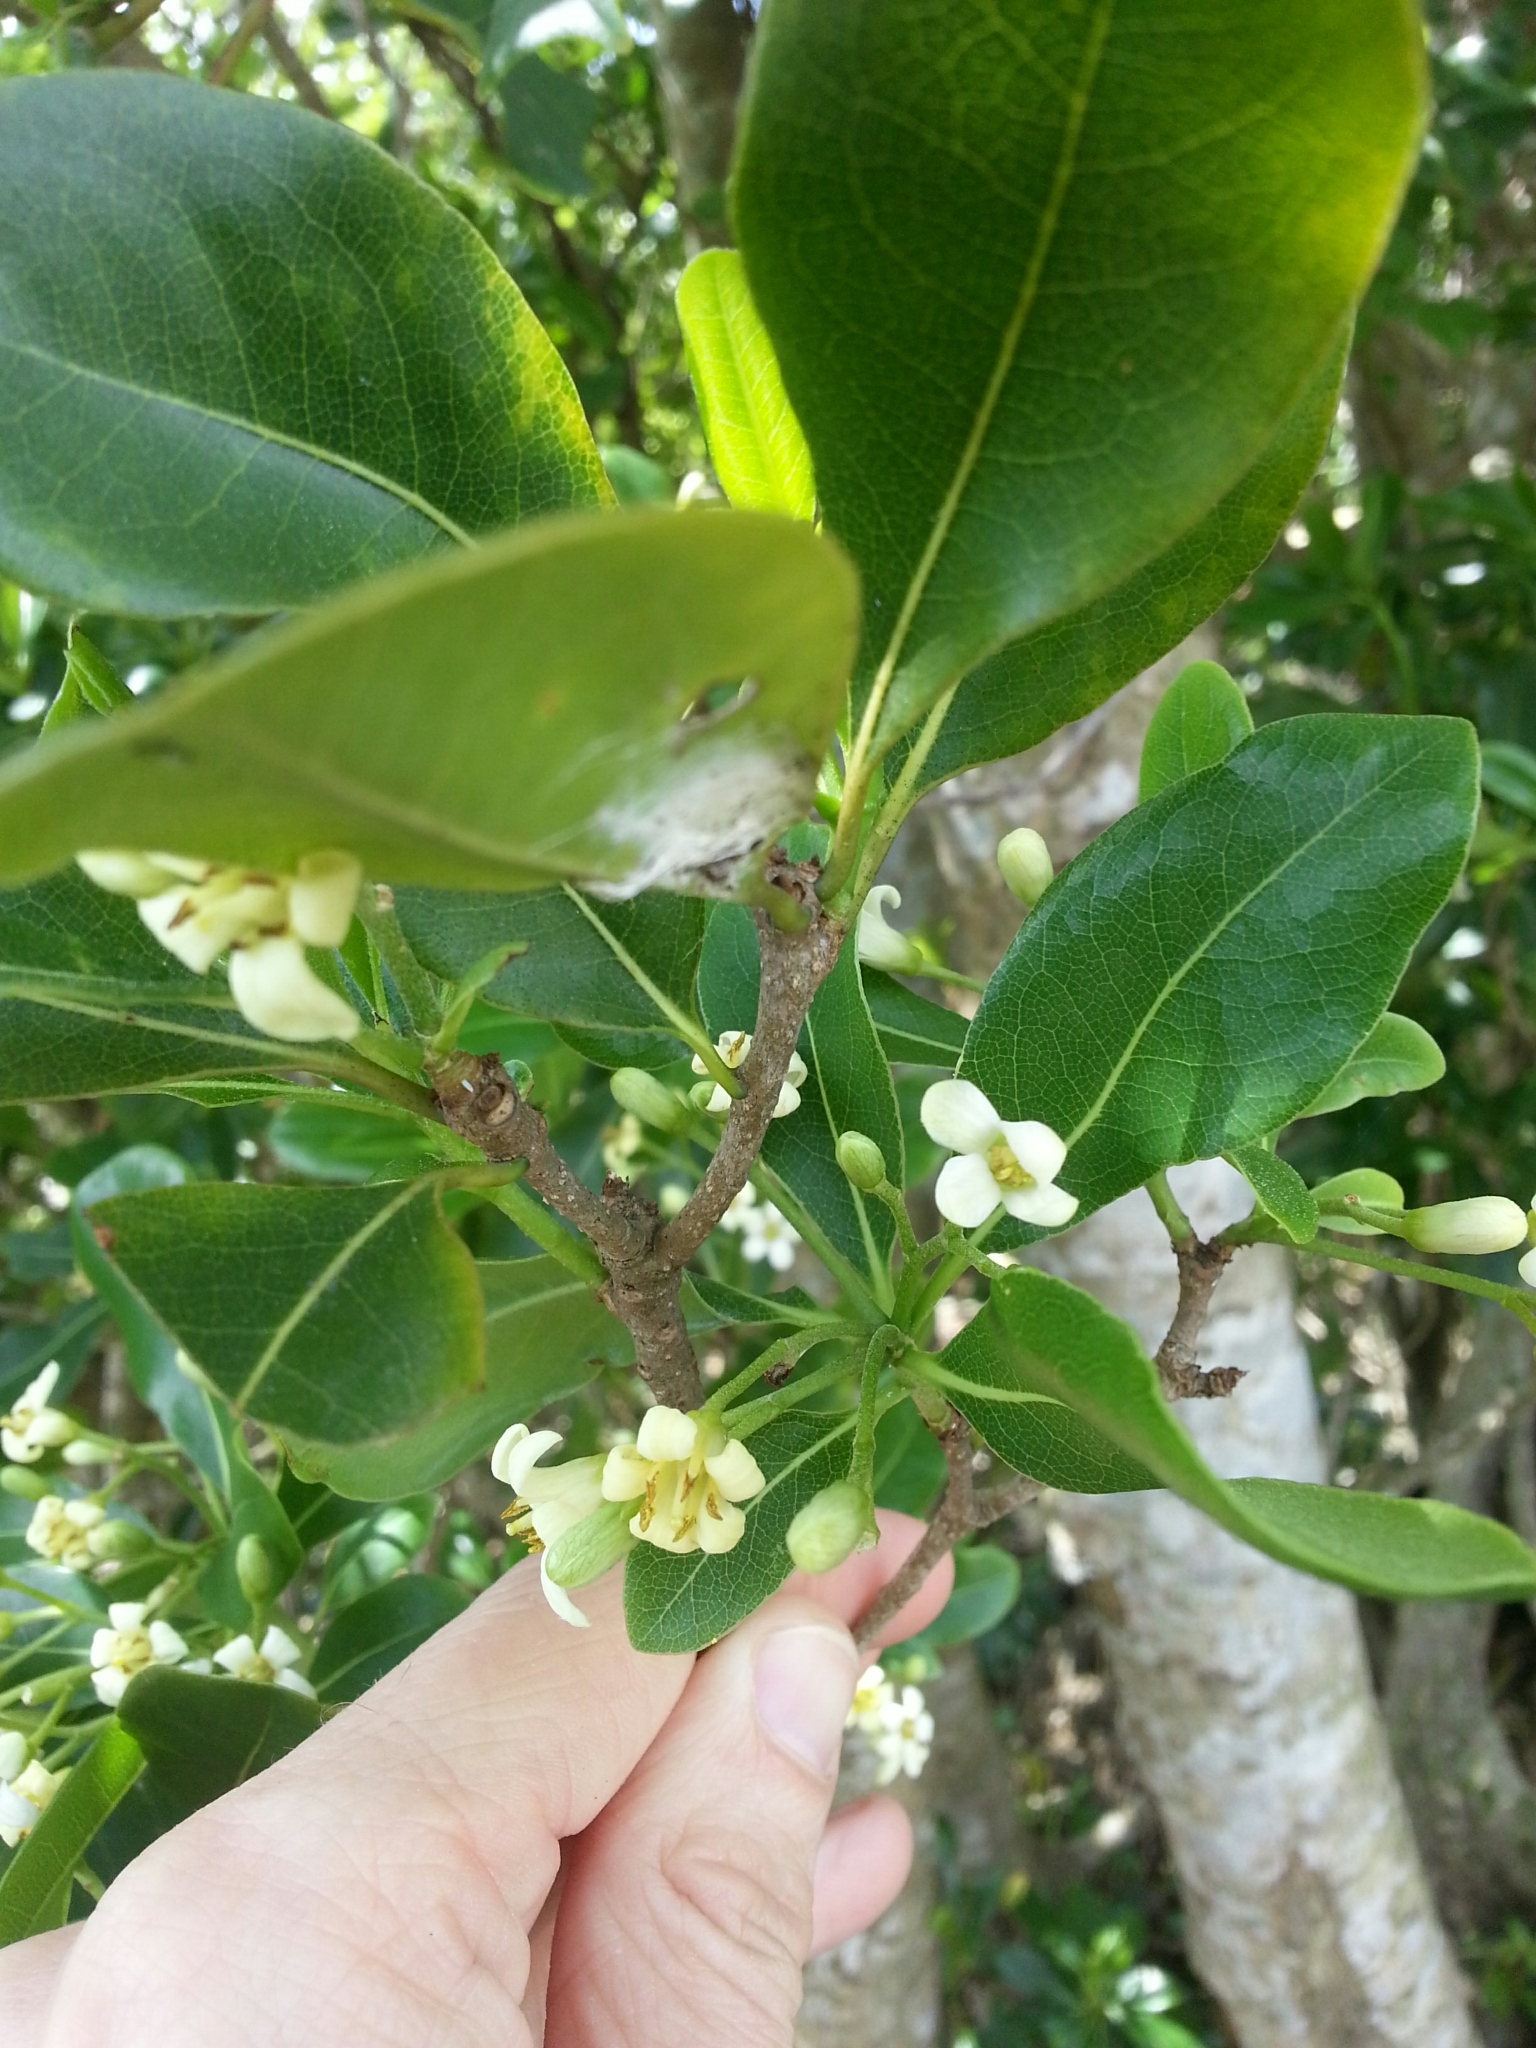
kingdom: Plantae
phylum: Tracheophyta
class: Magnoliopsida
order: Apiales
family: Pittosporaceae
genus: Pittosporum
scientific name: Pittosporum tobira
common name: Japanese cheesewood
